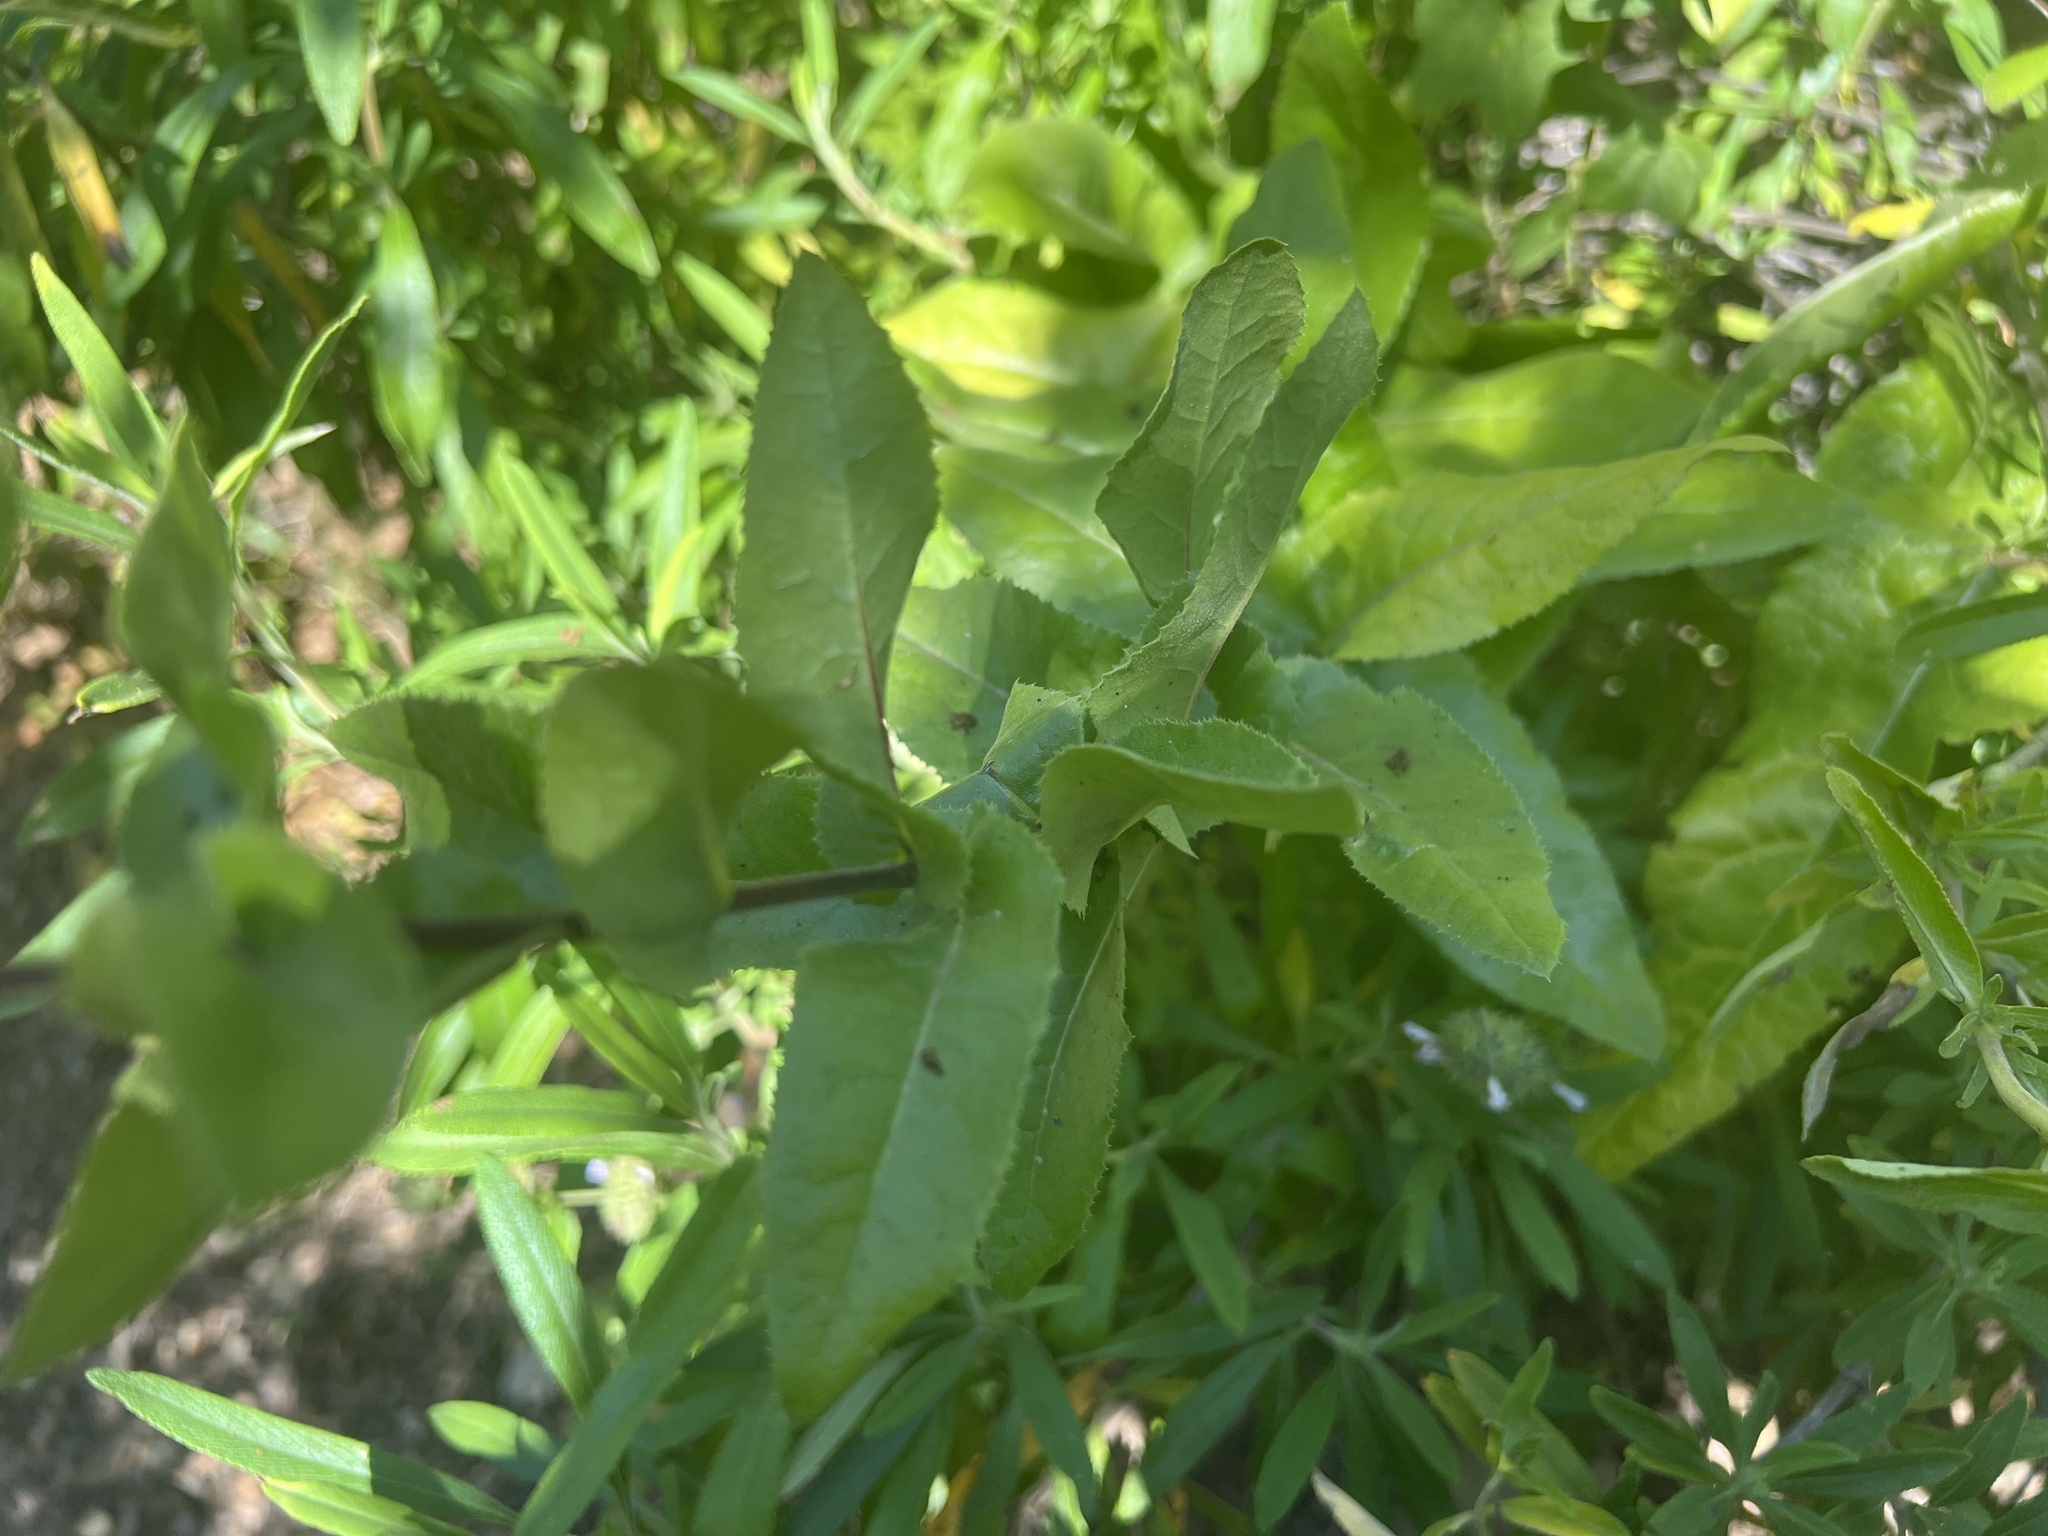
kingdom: Plantae
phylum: Tracheophyta
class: Magnoliopsida
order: Asterales
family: Asteraceae
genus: Acourtia
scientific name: Acourtia microcephala
